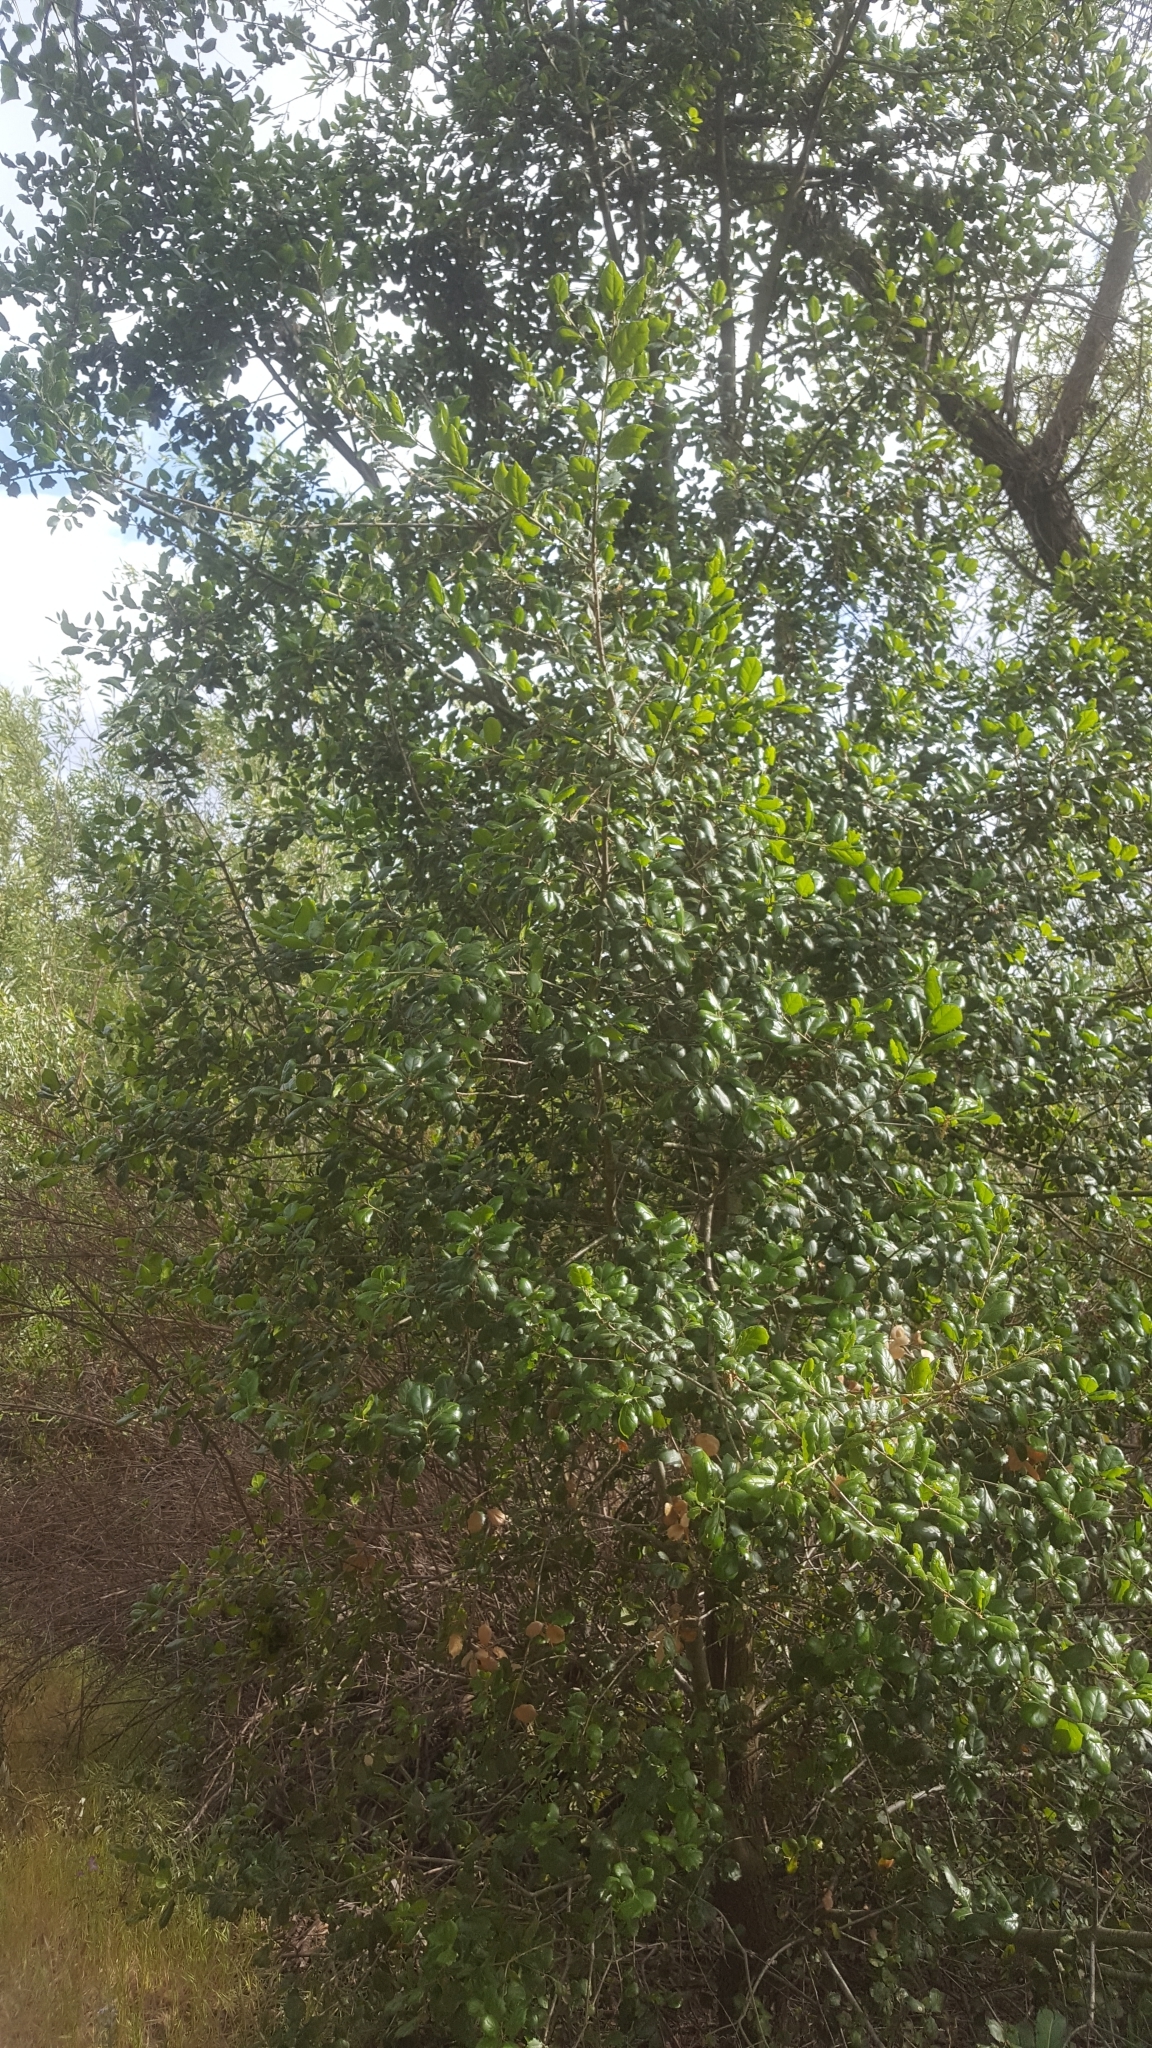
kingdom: Plantae
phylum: Tracheophyta
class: Magnoliopsida
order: Fagales
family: Fagaceae
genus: Quercus
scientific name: Quercus agrifolia
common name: California live oak
